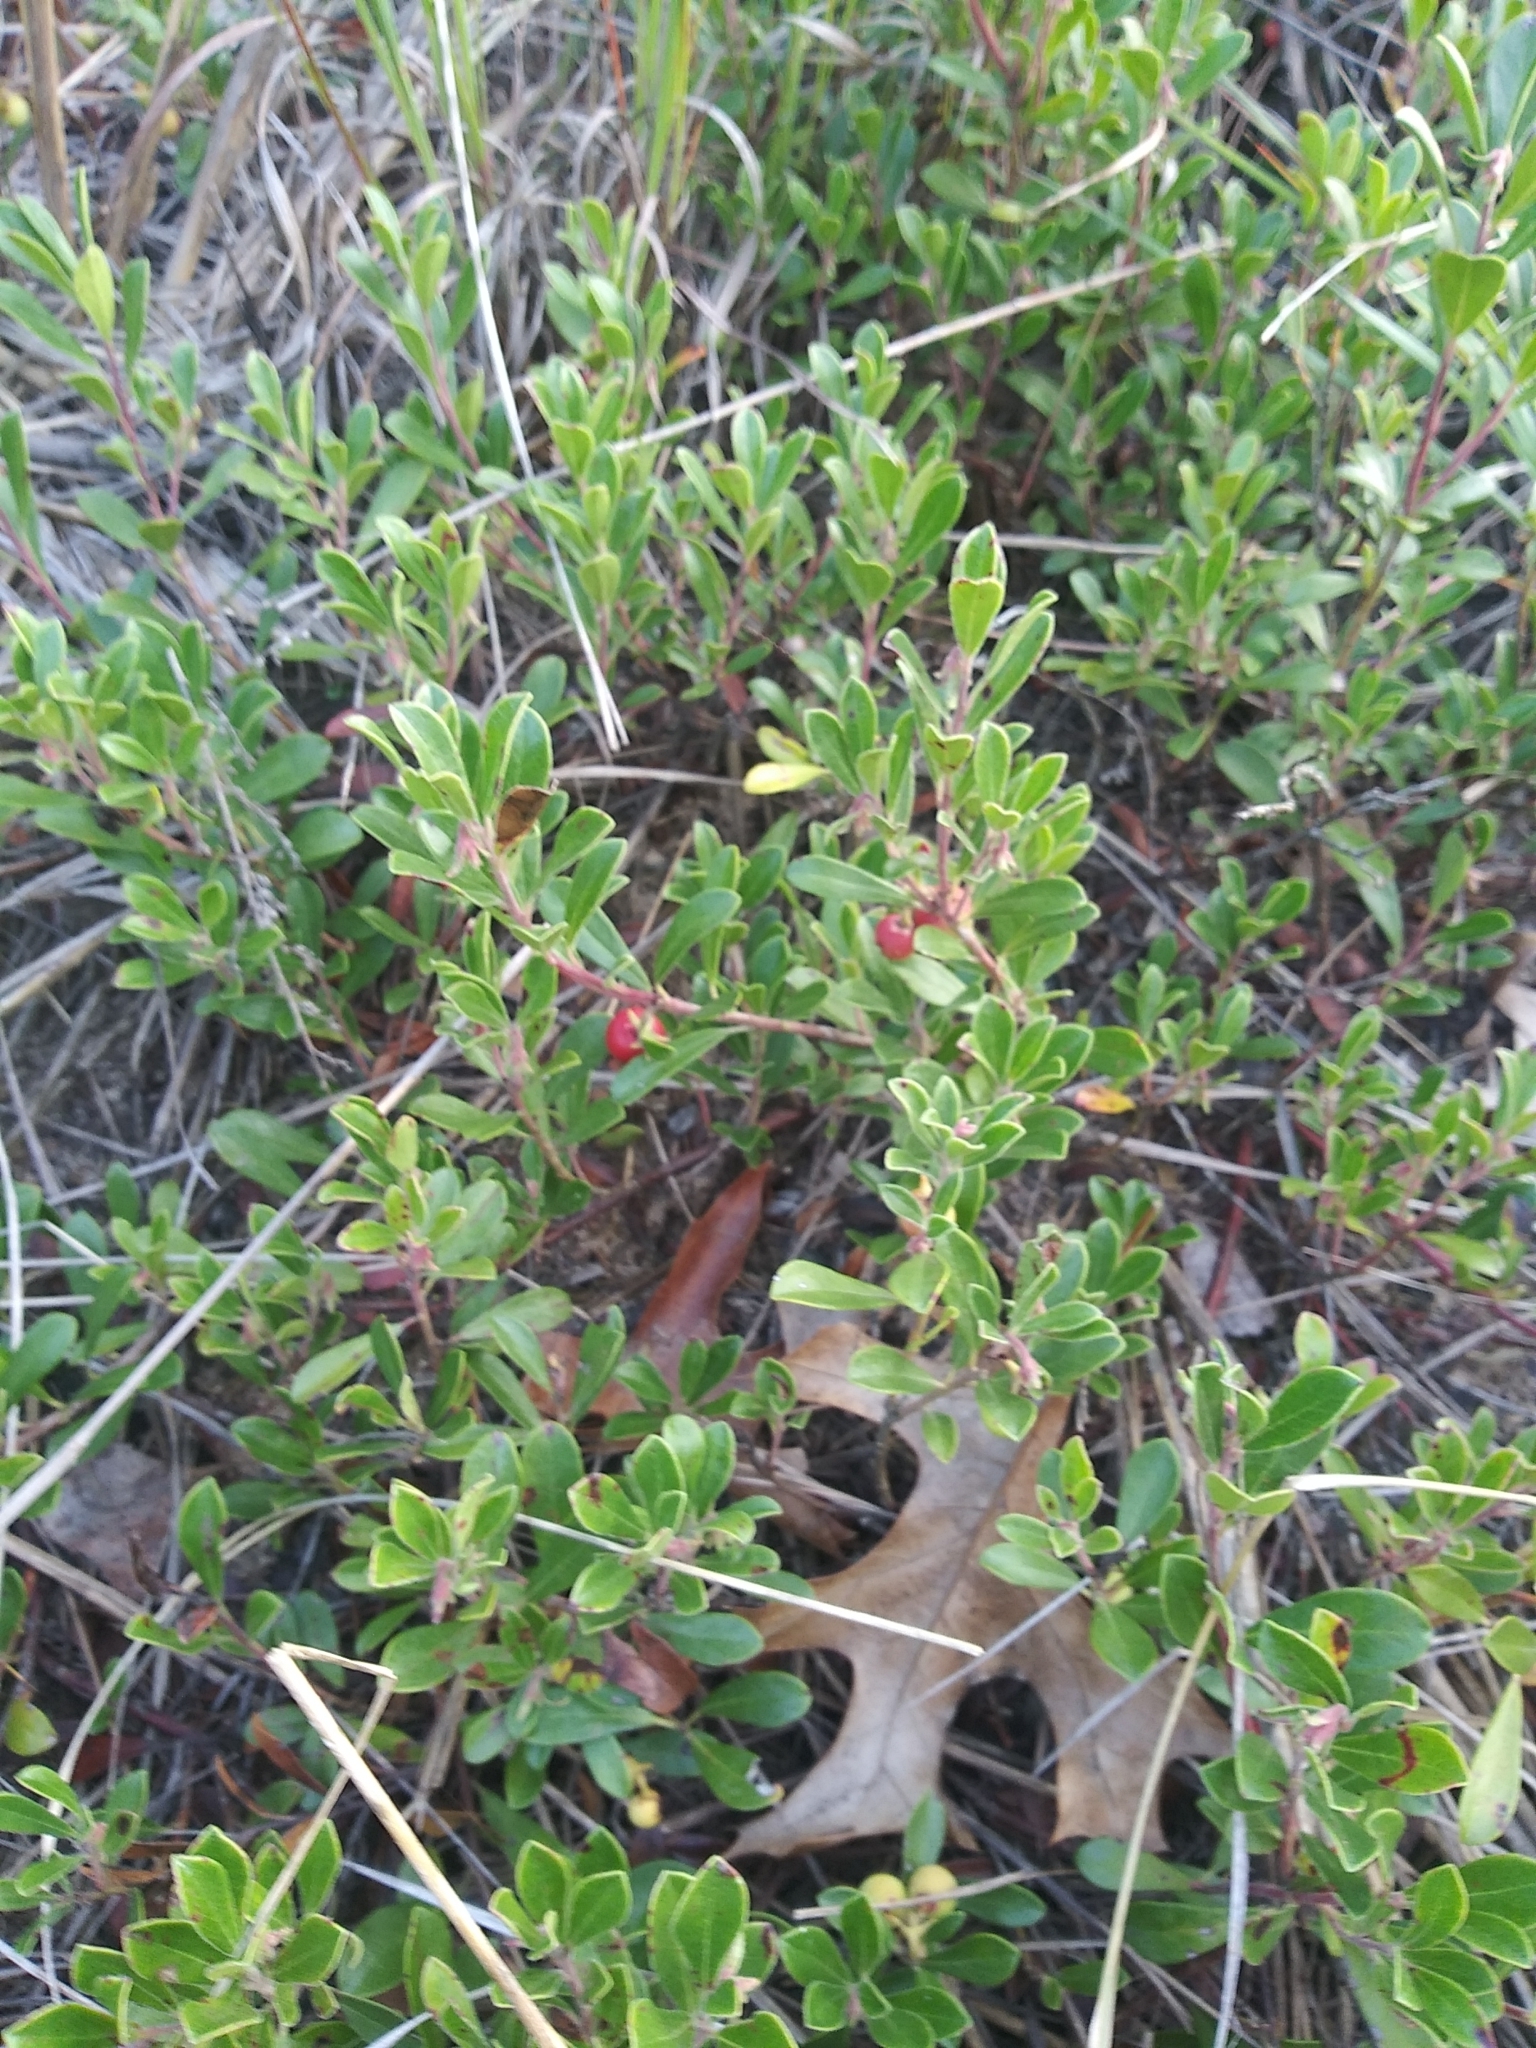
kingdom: Plantae
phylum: Tracheophyta
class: Magnoliopsida
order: Ericales
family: Ericaceae
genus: Arctostaphylos
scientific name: Arctostaphylos uva-ursi
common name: Bearberry
